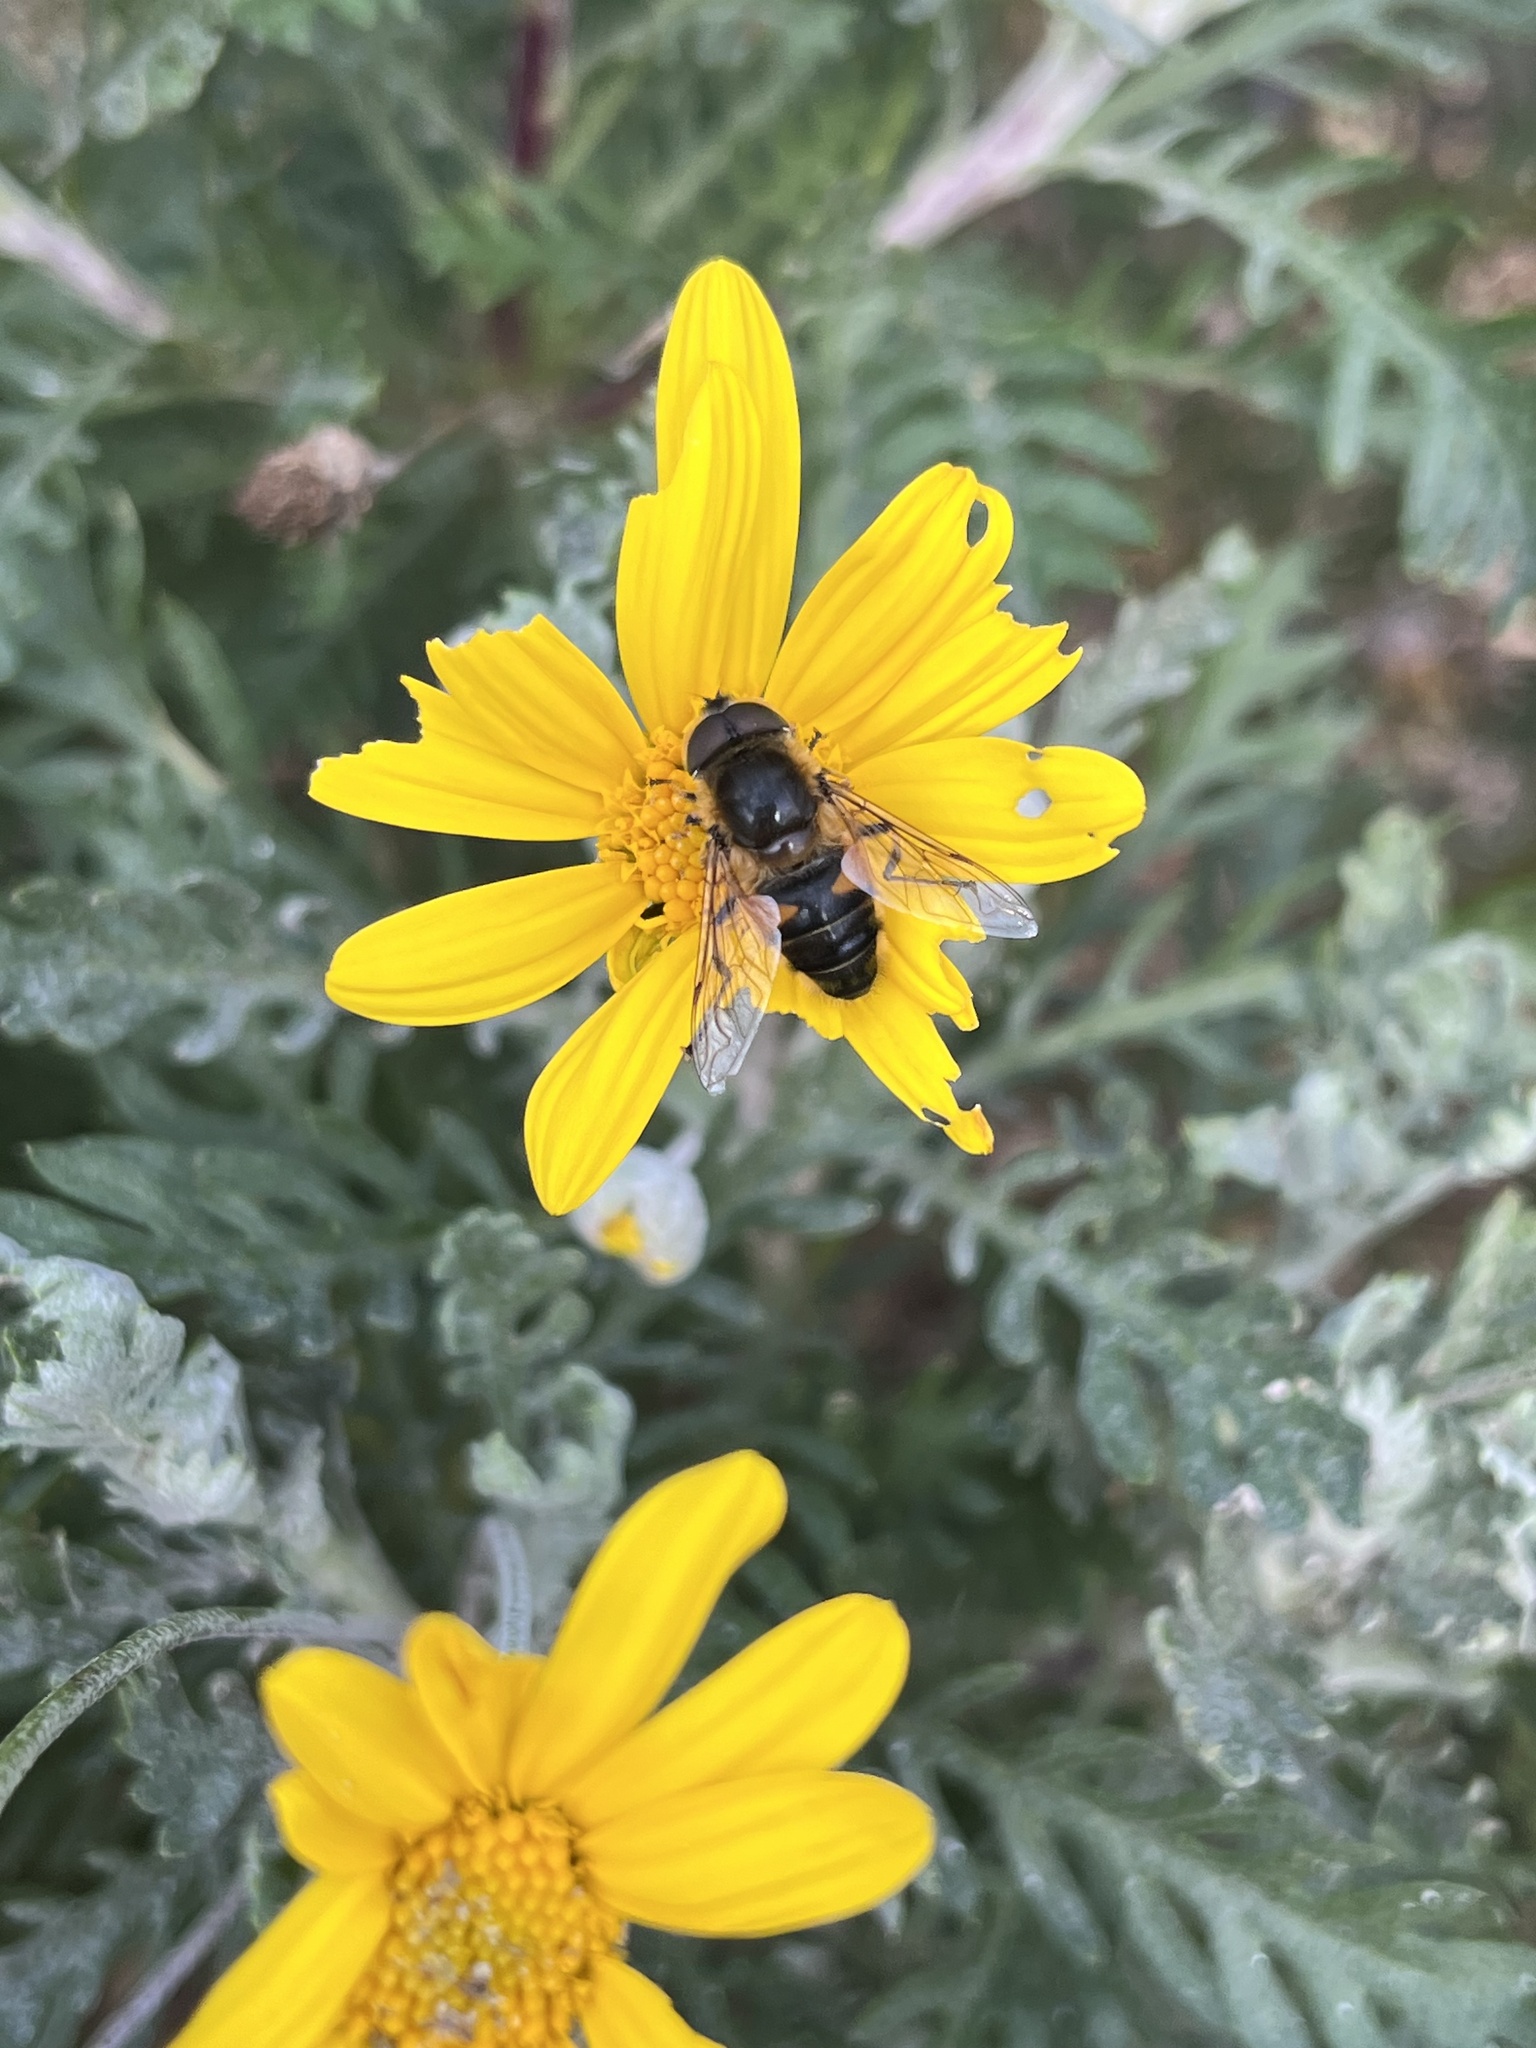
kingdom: Animalia
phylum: Arthropoda
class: Insecta
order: Diptera
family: Syrphidae
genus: Eristalis
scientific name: Eristalis pertinax
